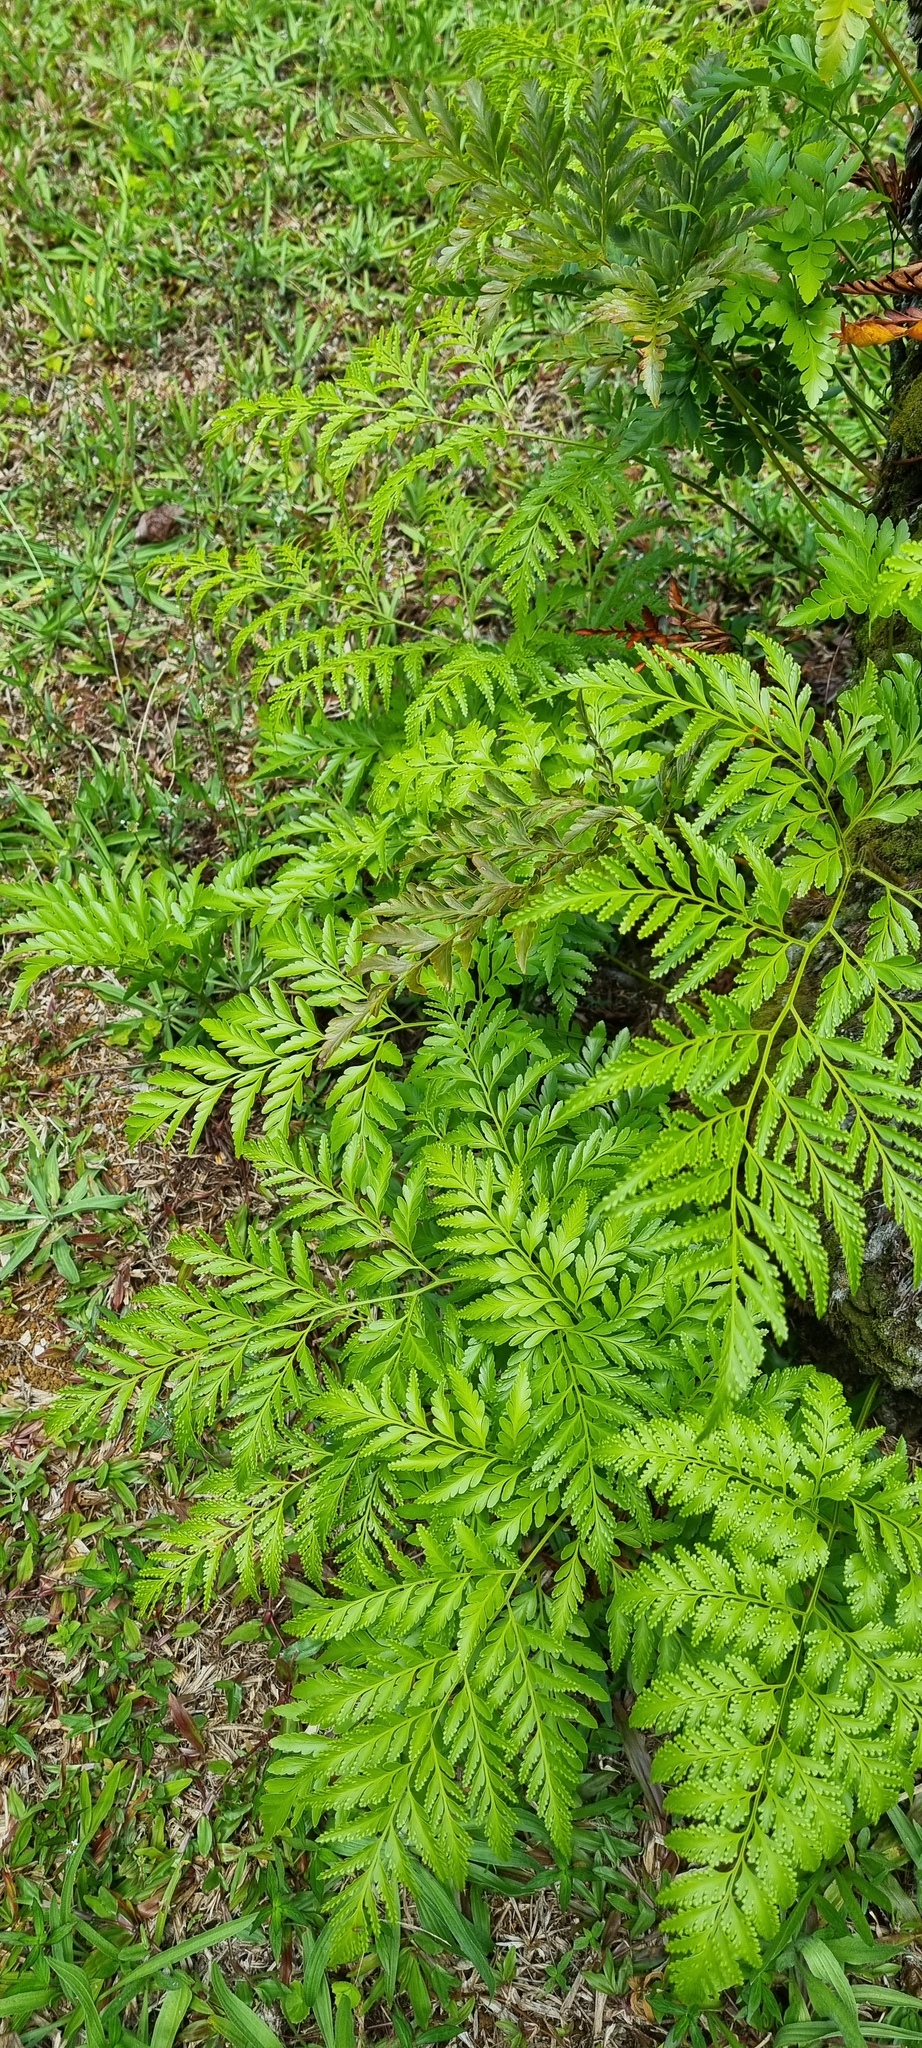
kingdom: Plantae
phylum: Tracheophyta
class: Polypodiopsida
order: Polypodiales
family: Davalliaceae
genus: Davallia
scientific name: Davallia solida
